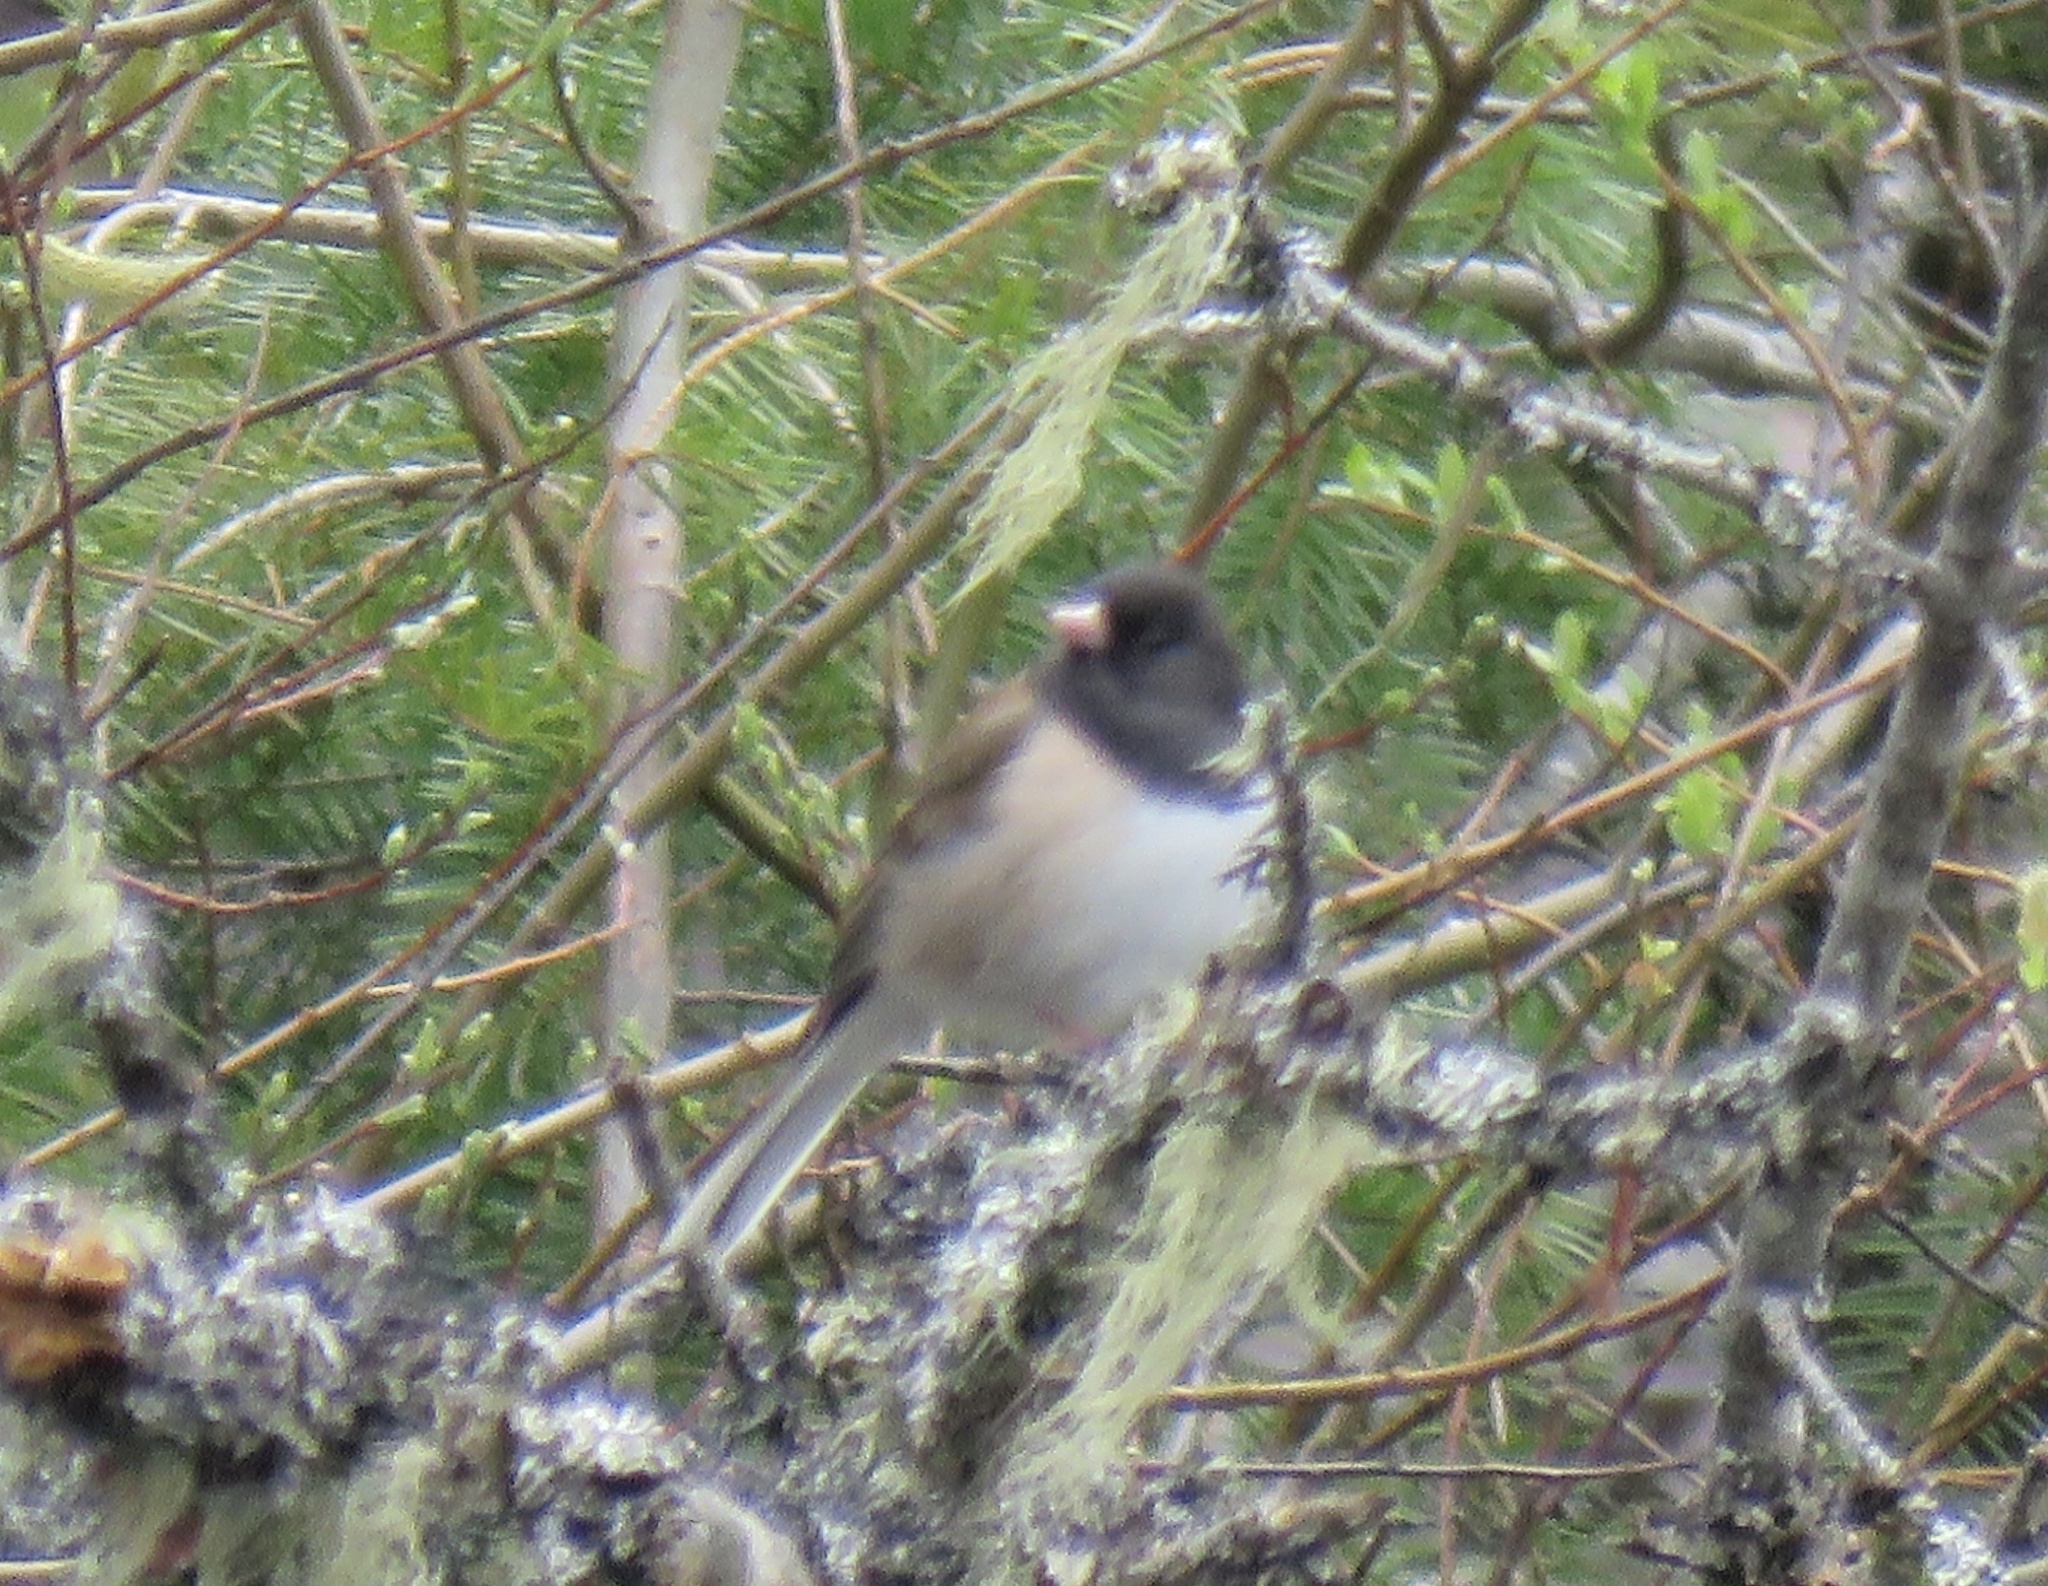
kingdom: Animalia
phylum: Chordata
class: Aves
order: Passeriformes
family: Passerellidae
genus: Junco
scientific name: Junco hyemalis
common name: Dark-eyed junco
